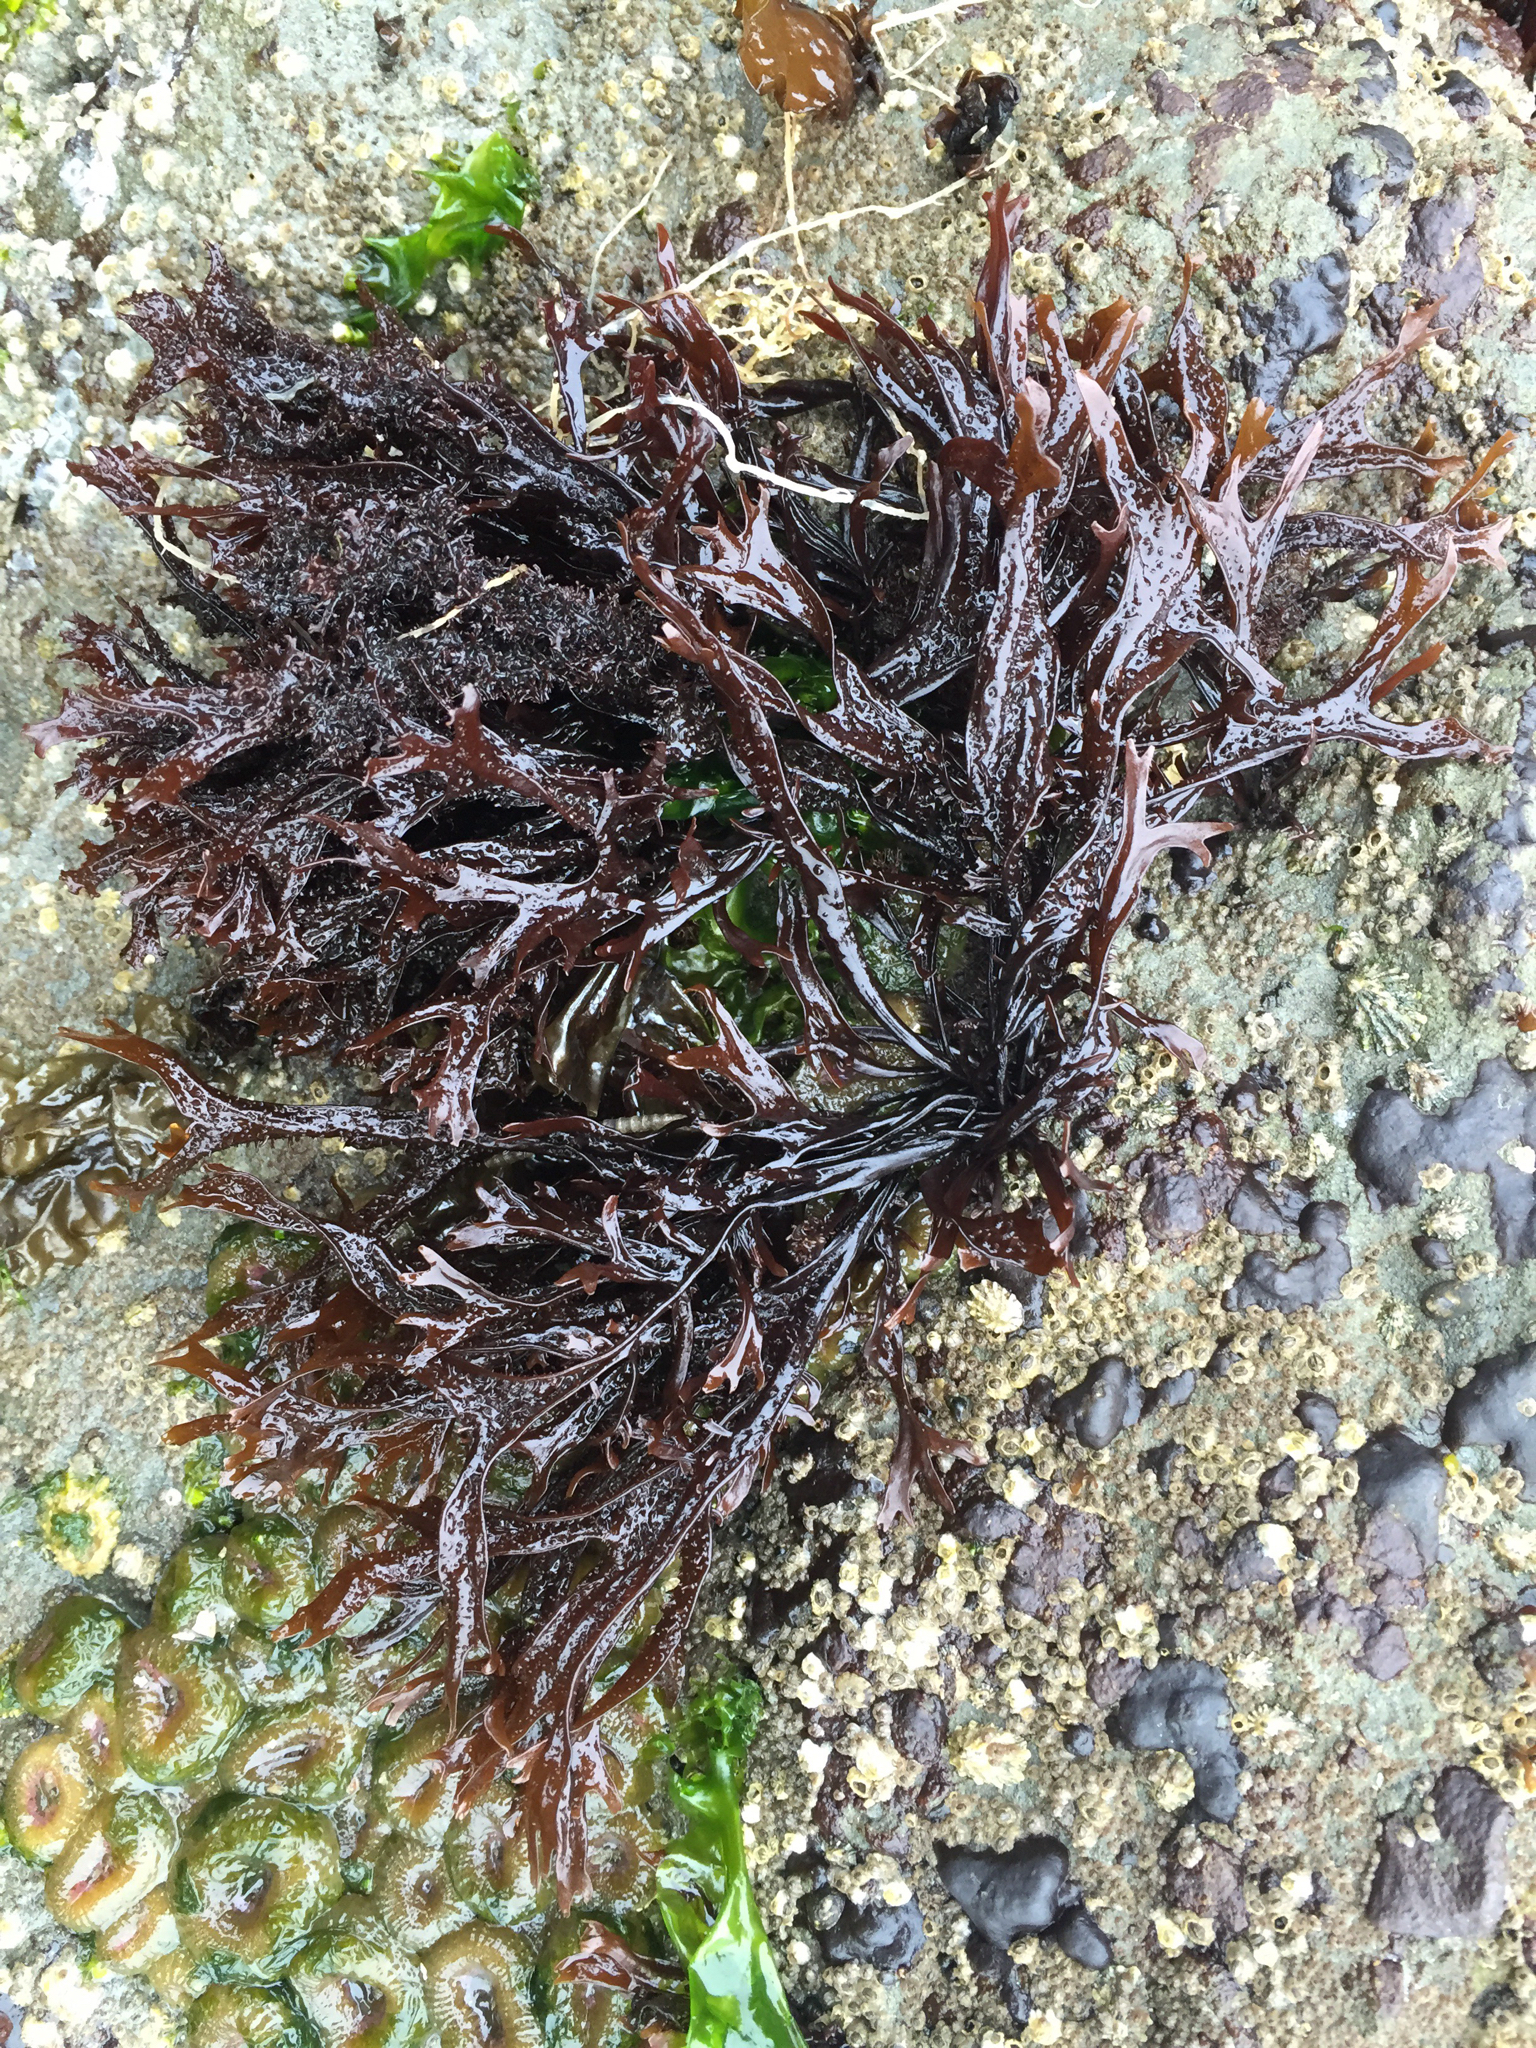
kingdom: Plantae
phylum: Rhodophyta
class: Florideophyceae
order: Gigartinales
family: Phyllophoraceae
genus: Mastocarpus
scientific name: Mastocarpus jardinii
